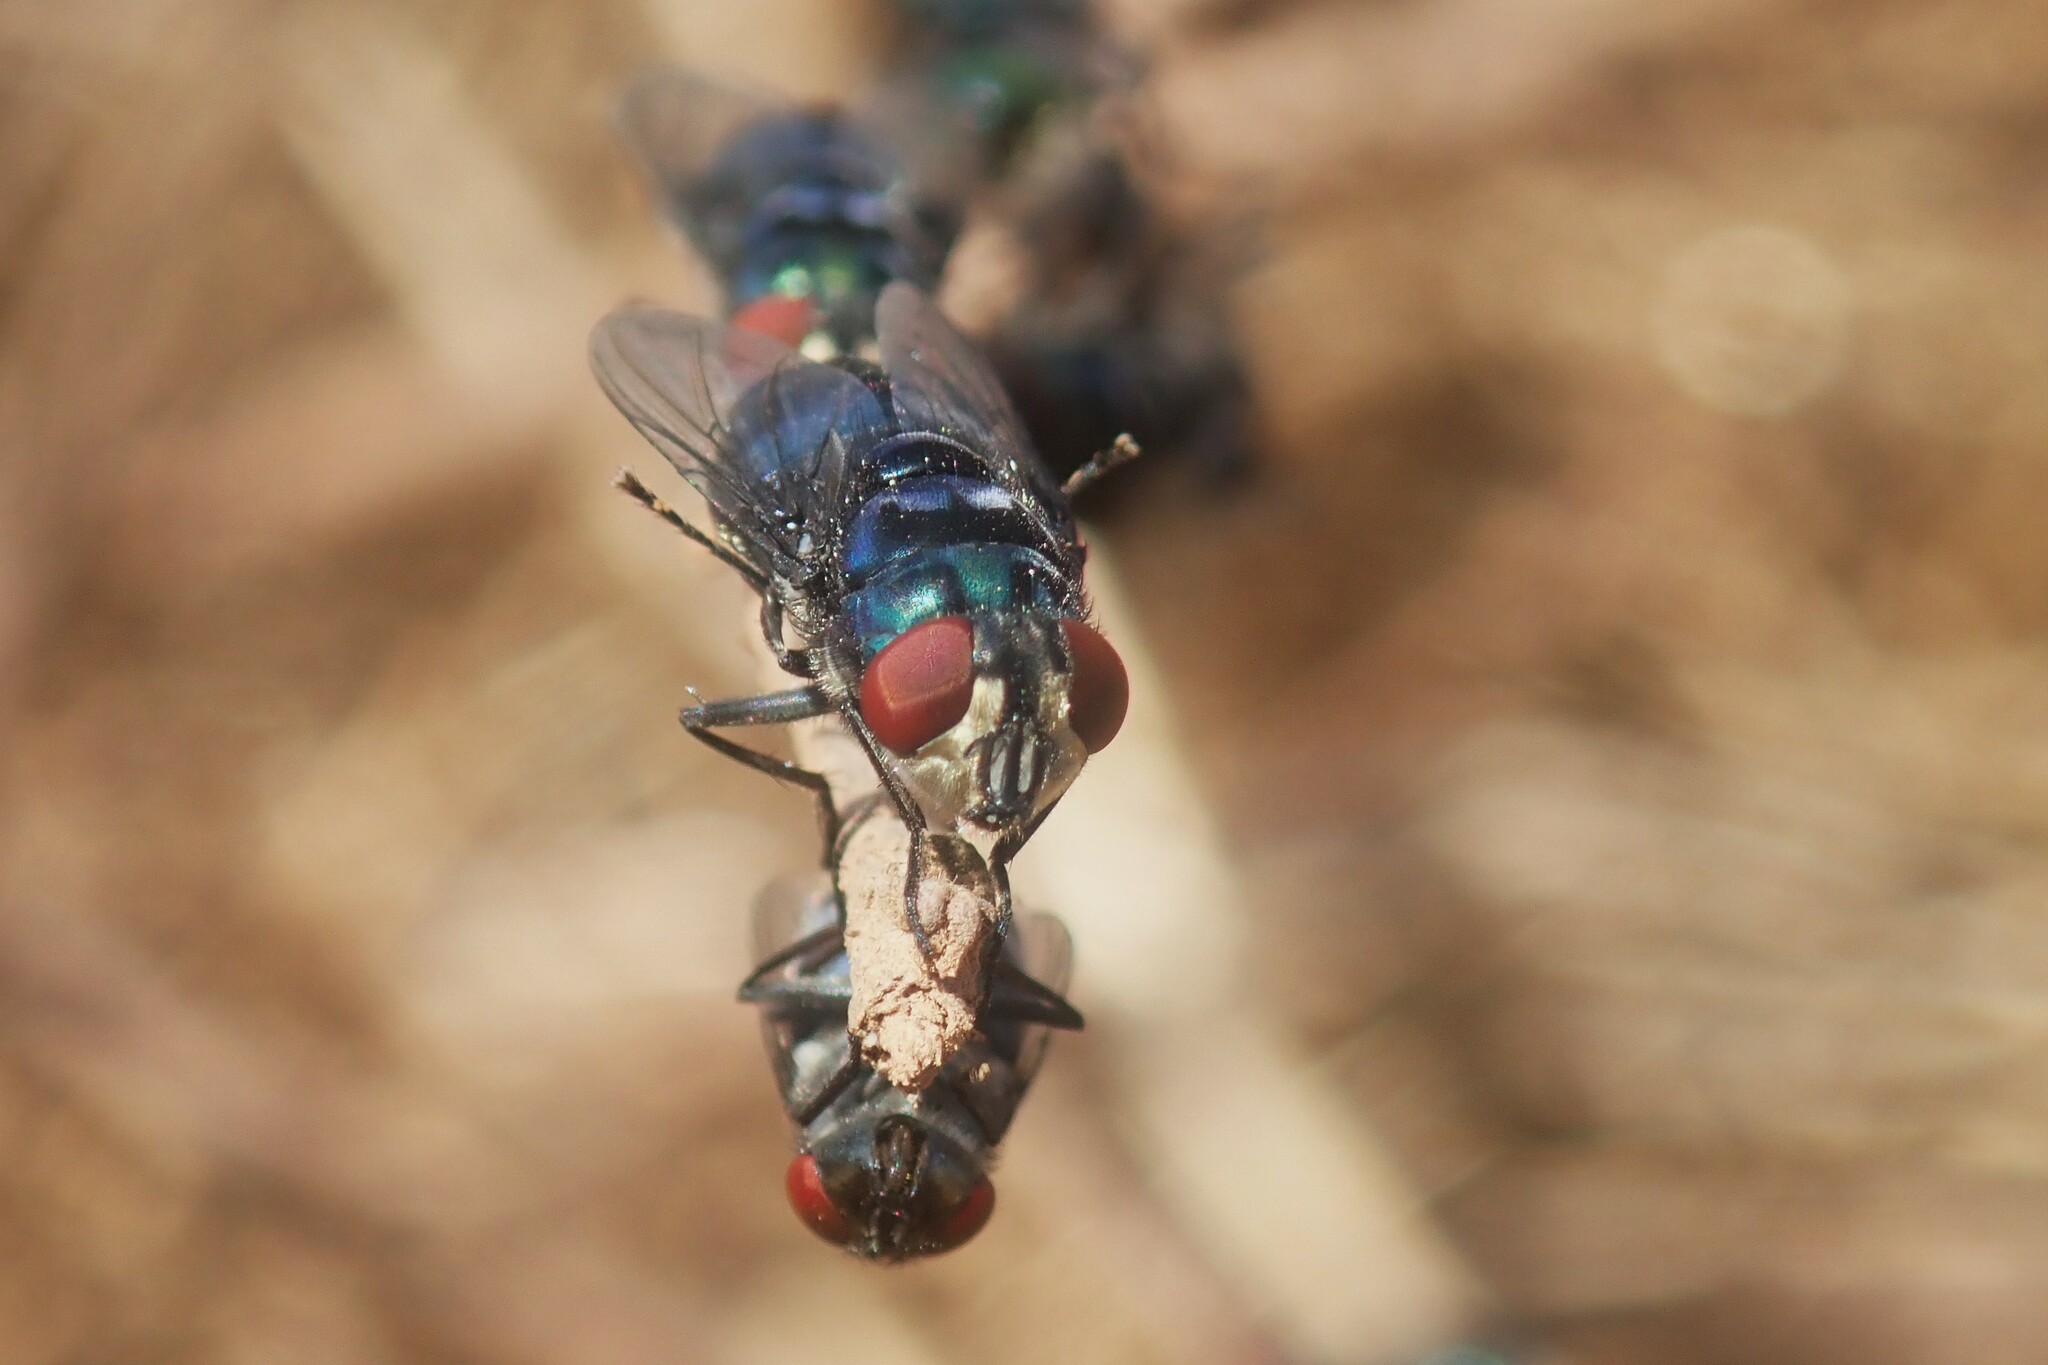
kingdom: Animalia
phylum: Arthropoda
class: Insecta
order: Diptera
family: Calliphoridae
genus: Chrysomya
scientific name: Chrysomya chloropyga
